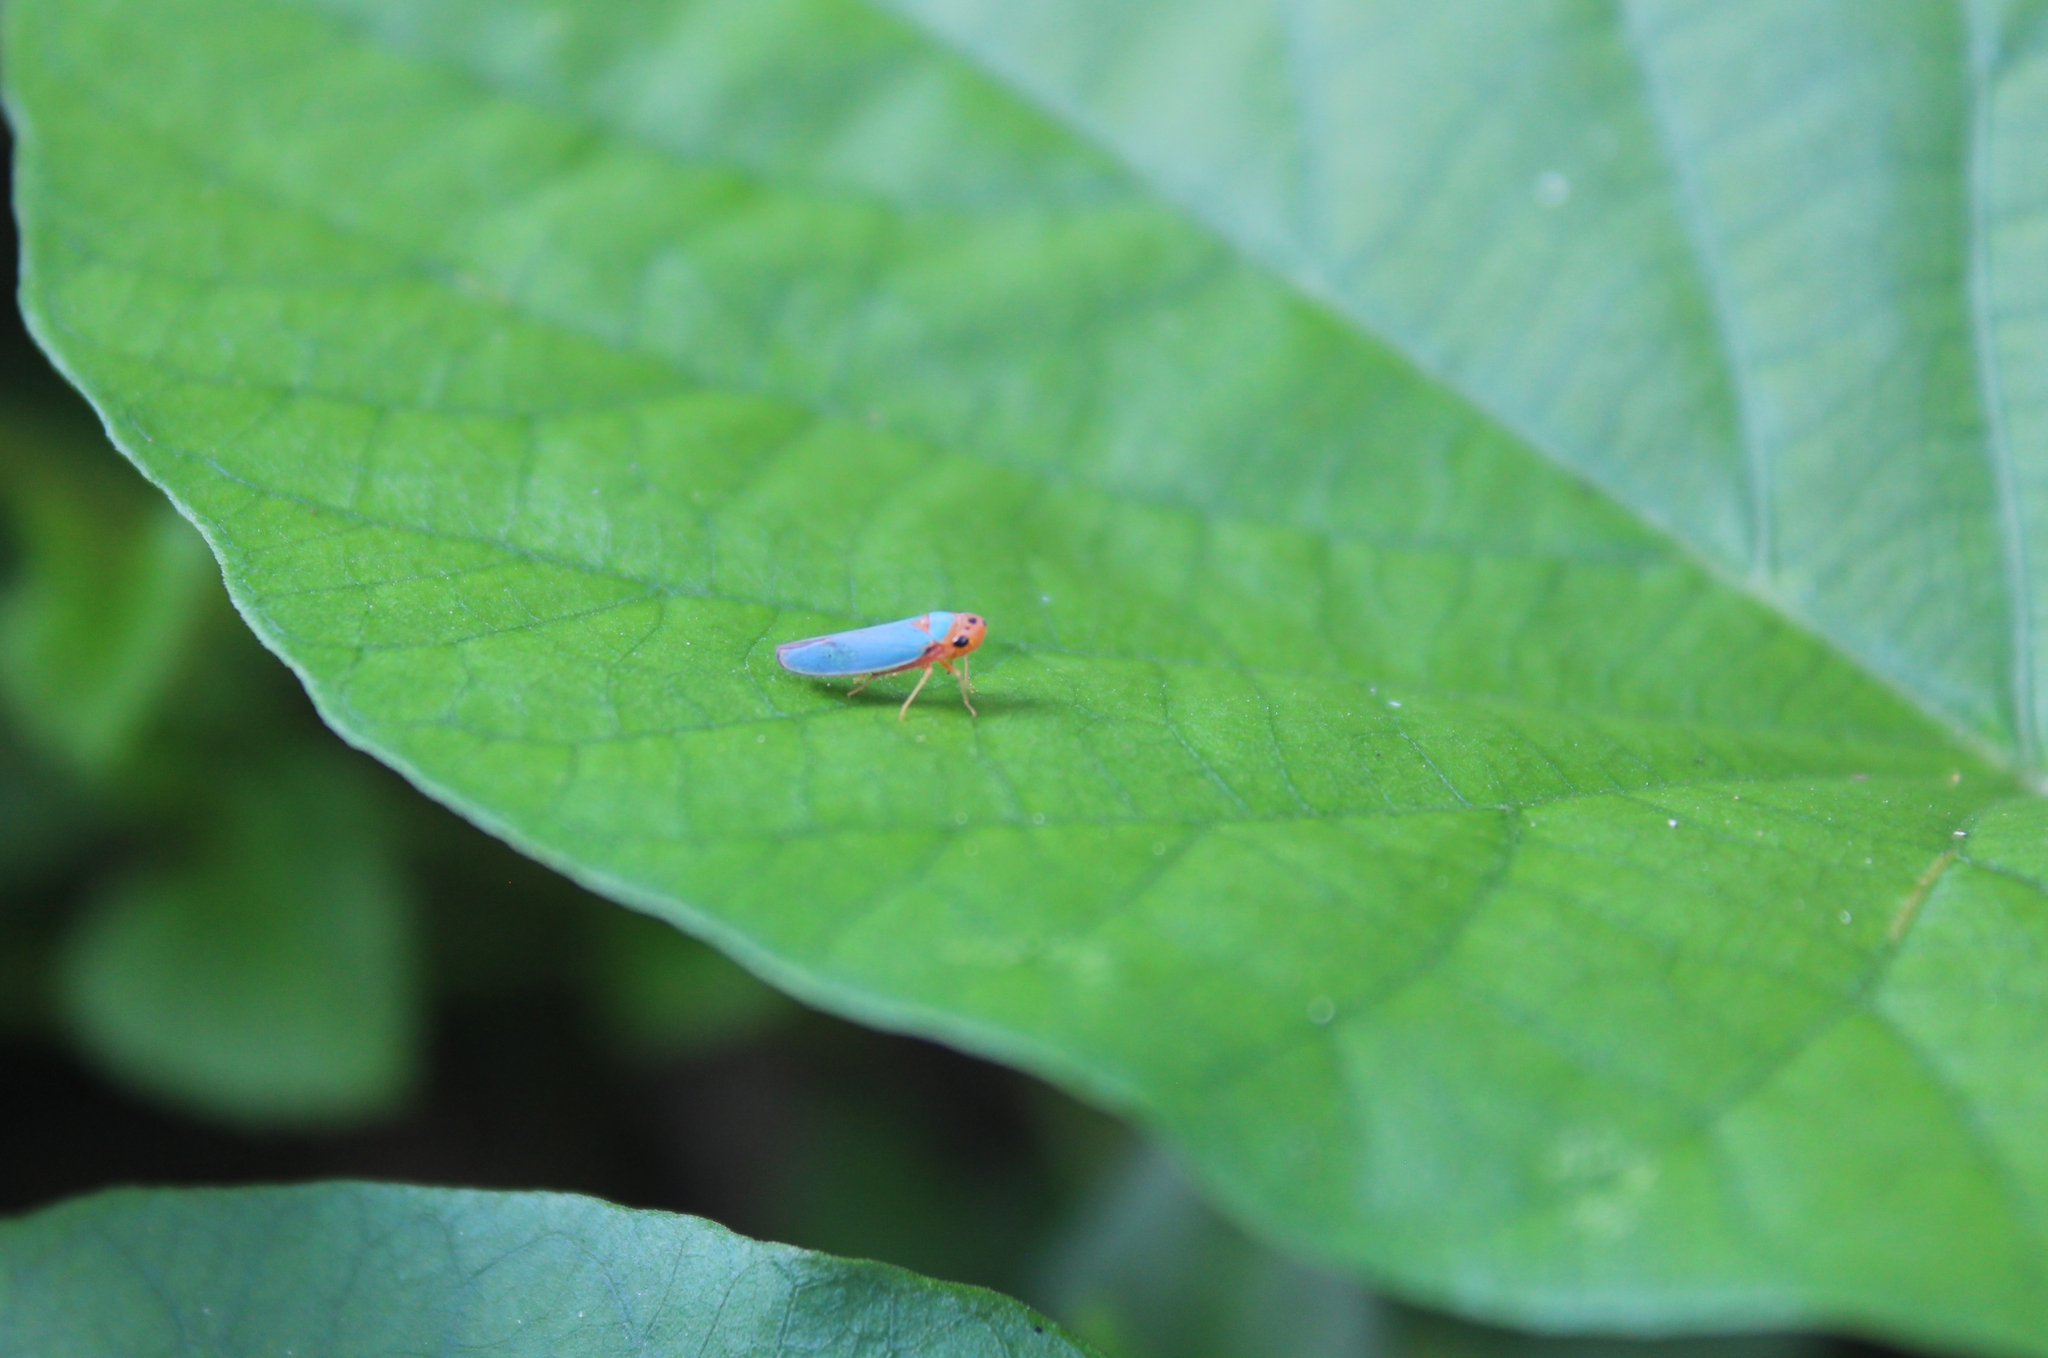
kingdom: Animalia
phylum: Arthropoda
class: Insecta
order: Hemiptera
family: Cicadellidae
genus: Macunolla
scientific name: Macunolla ventralis
